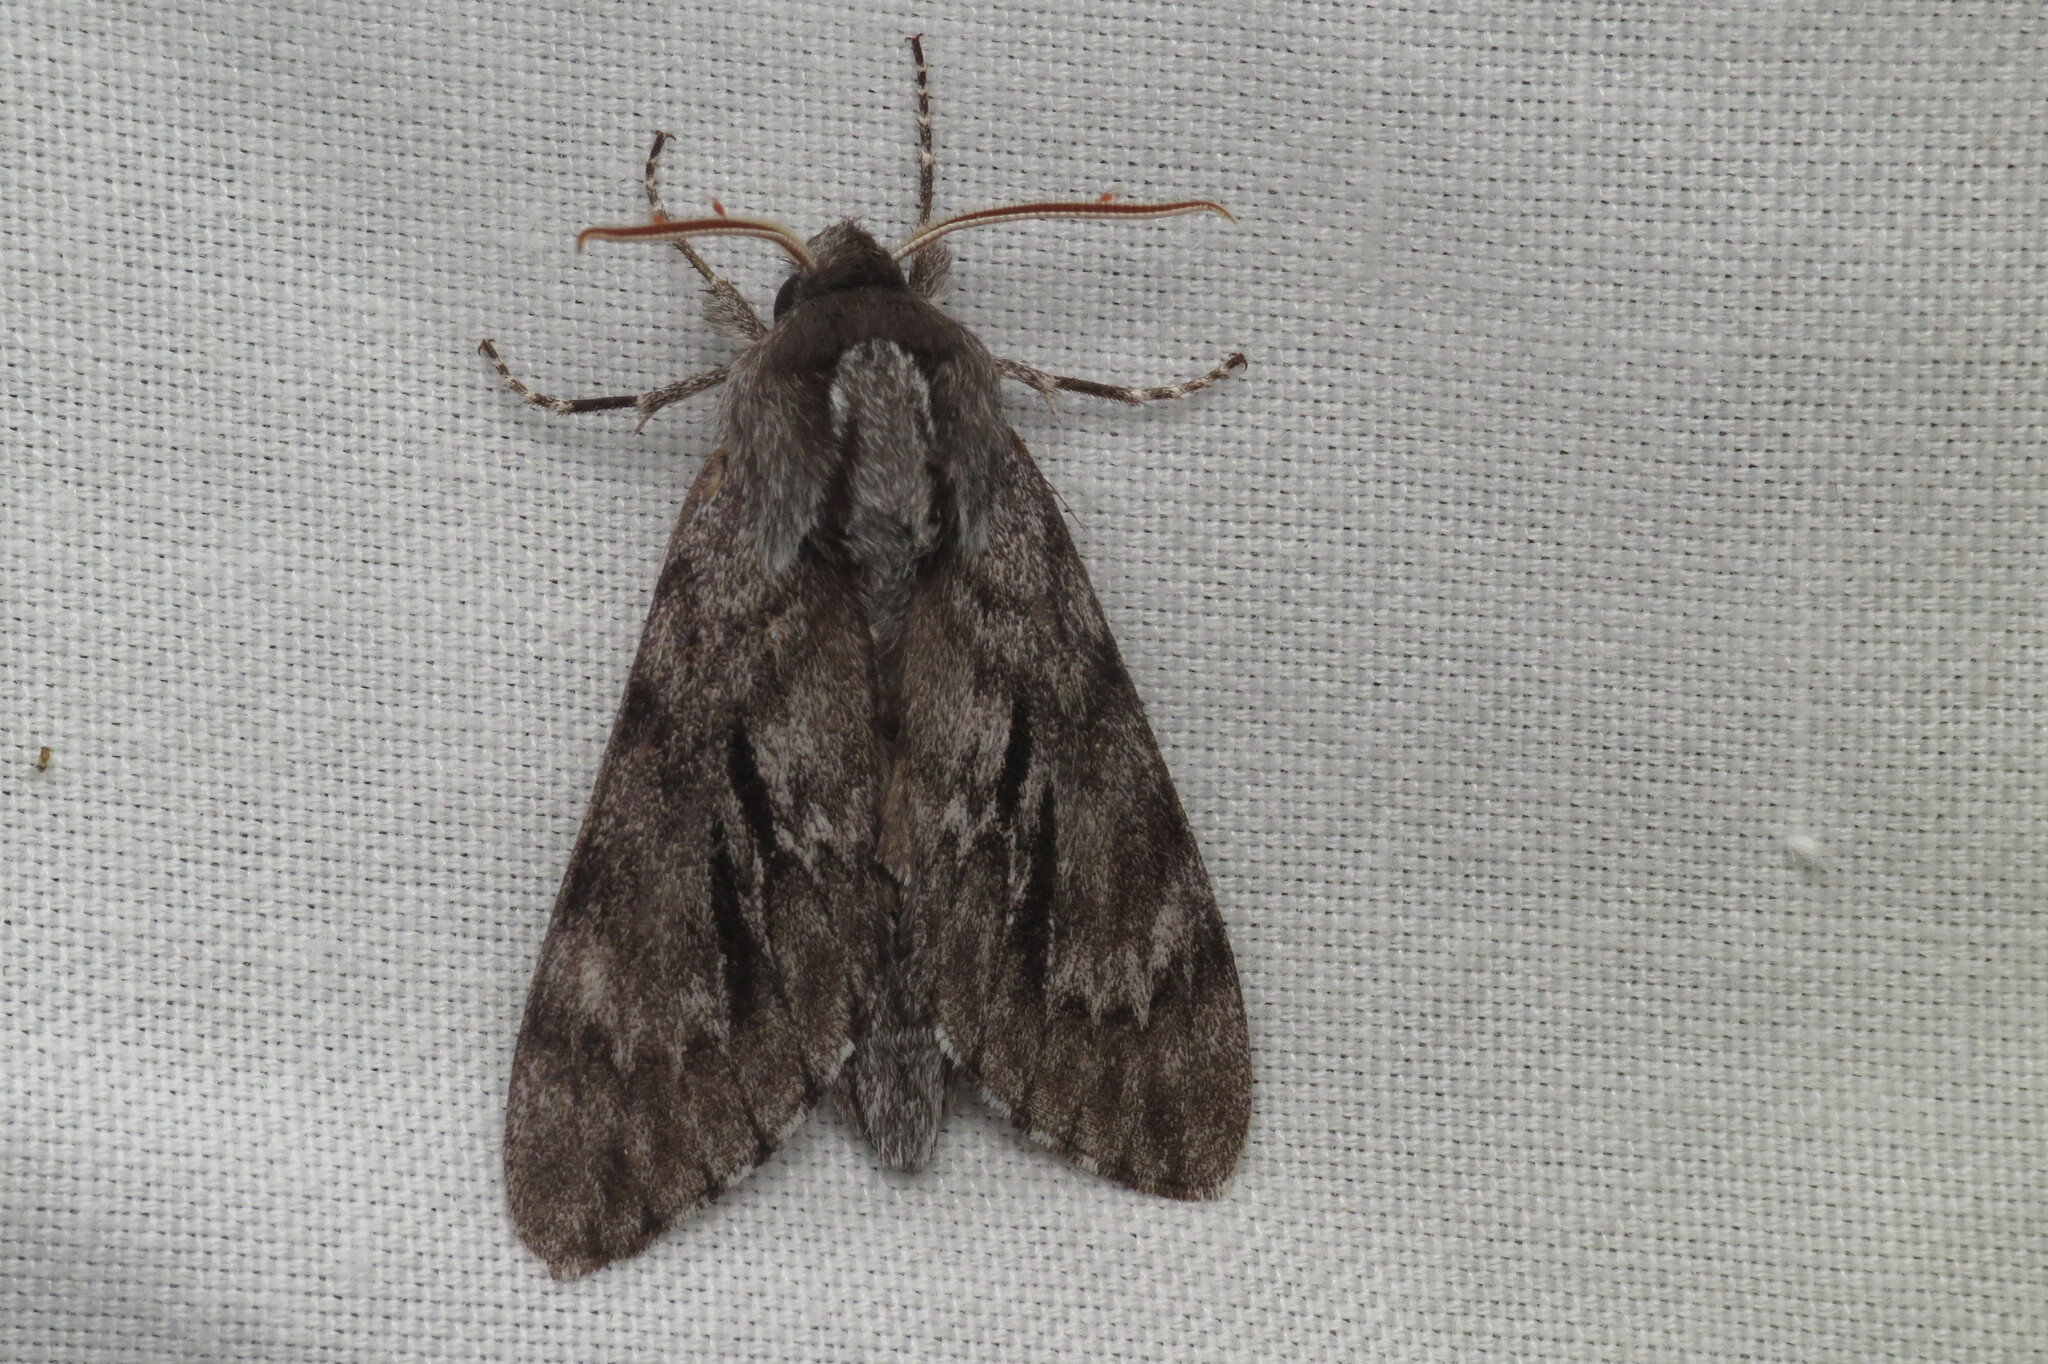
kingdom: Animalia
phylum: Arthropoda
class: Insecta
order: Lepidoptera
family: Sphingidae
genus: Lapara
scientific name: Lapara bombycoides
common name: Northern pine sphinx
